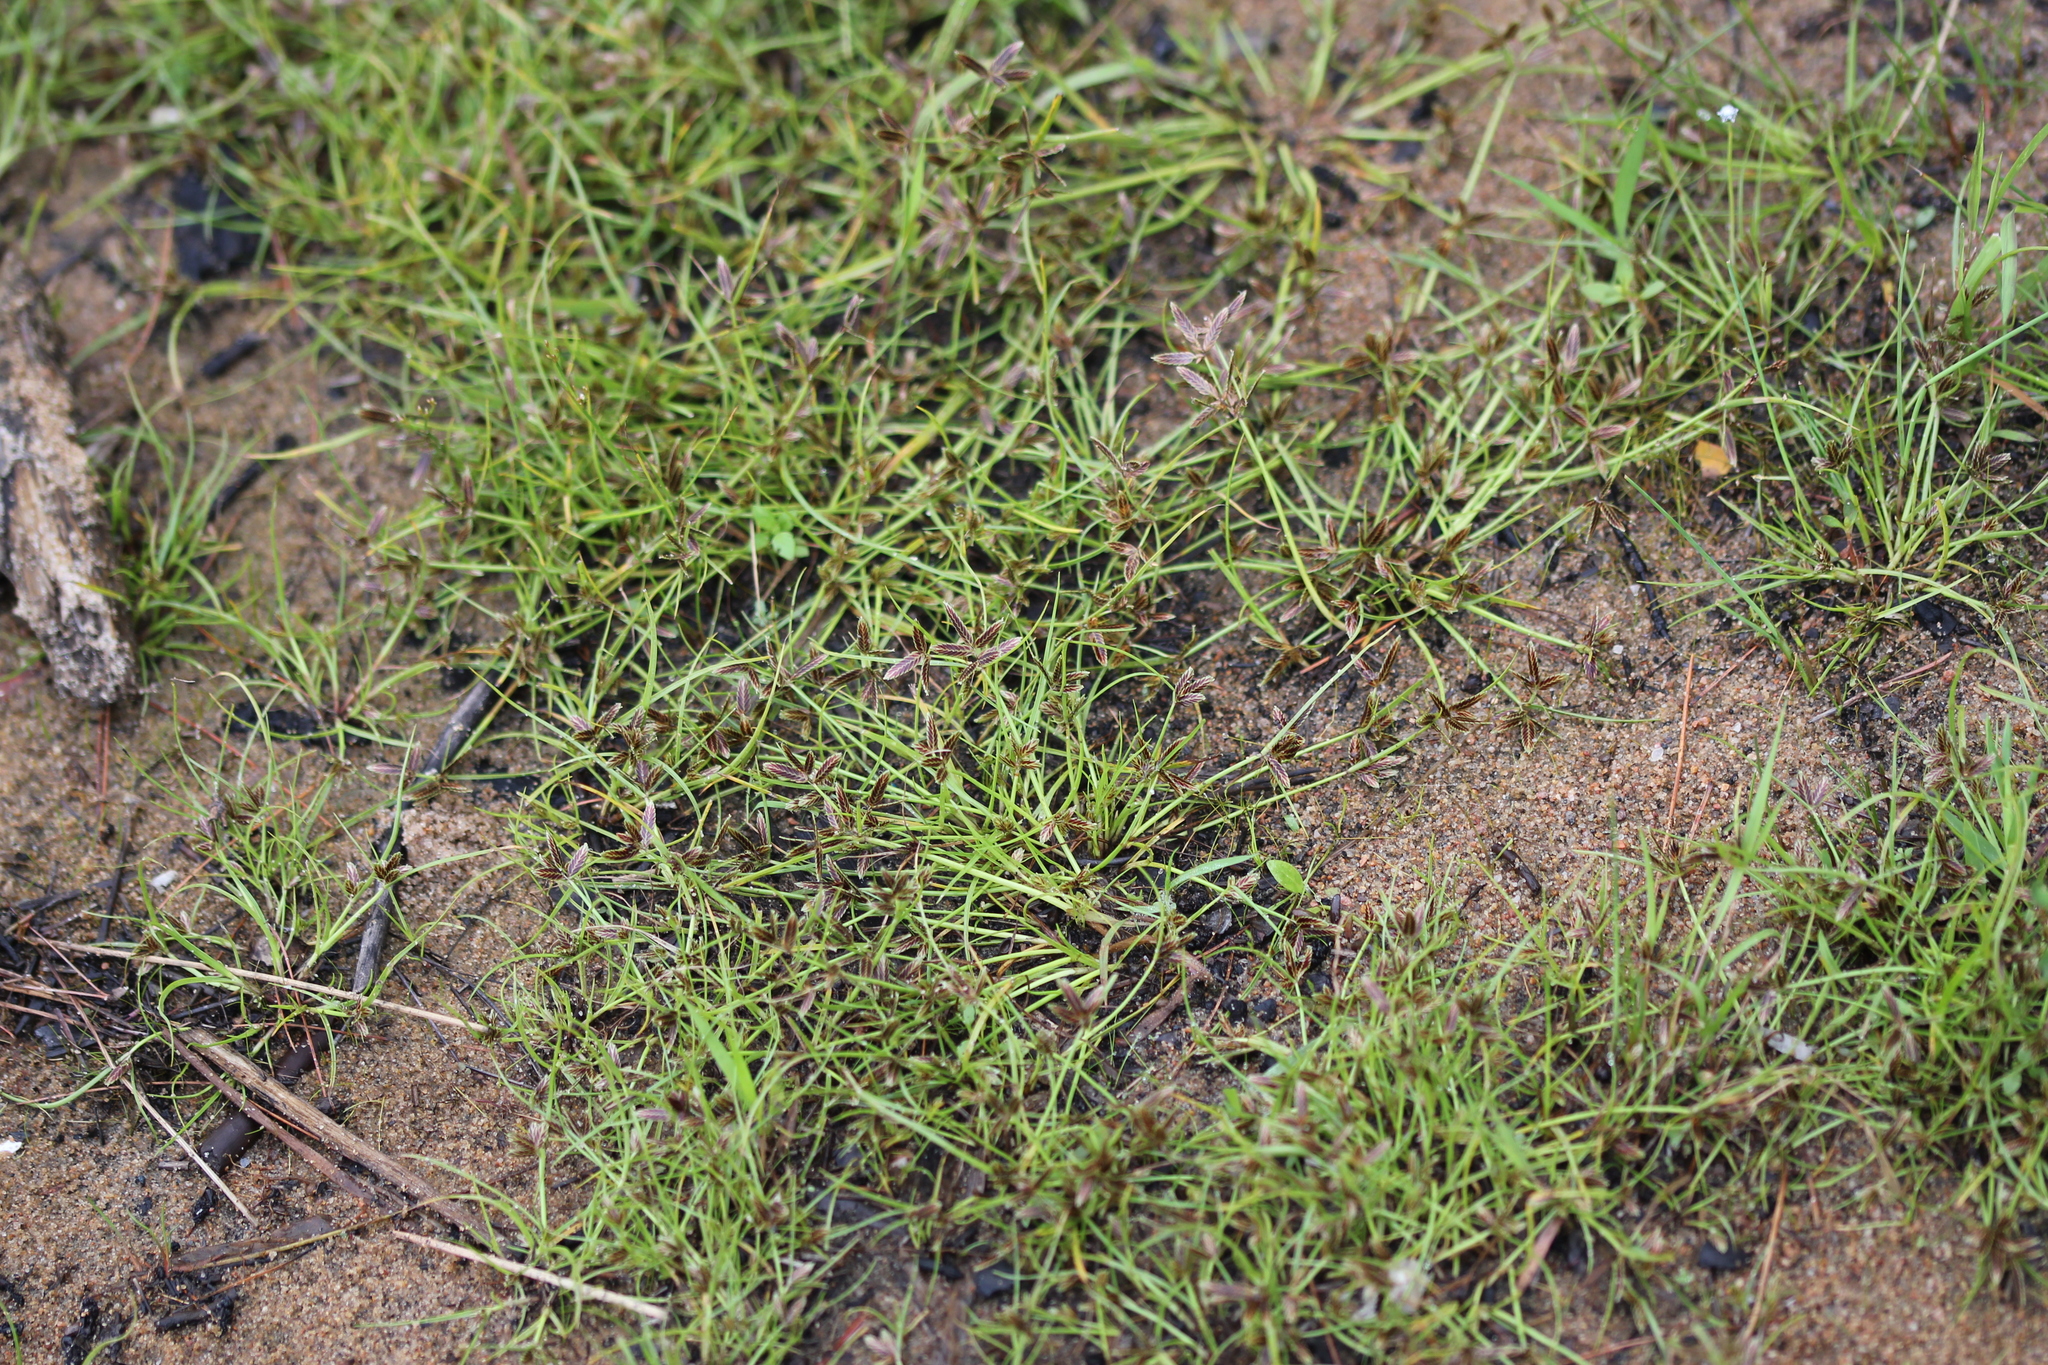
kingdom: Plantae
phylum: Tracheophyta
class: Liliopsida
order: Poales
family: Cyperaceae
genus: Cyperus
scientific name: Cyperus bipartitus
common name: Brook flatsedge
